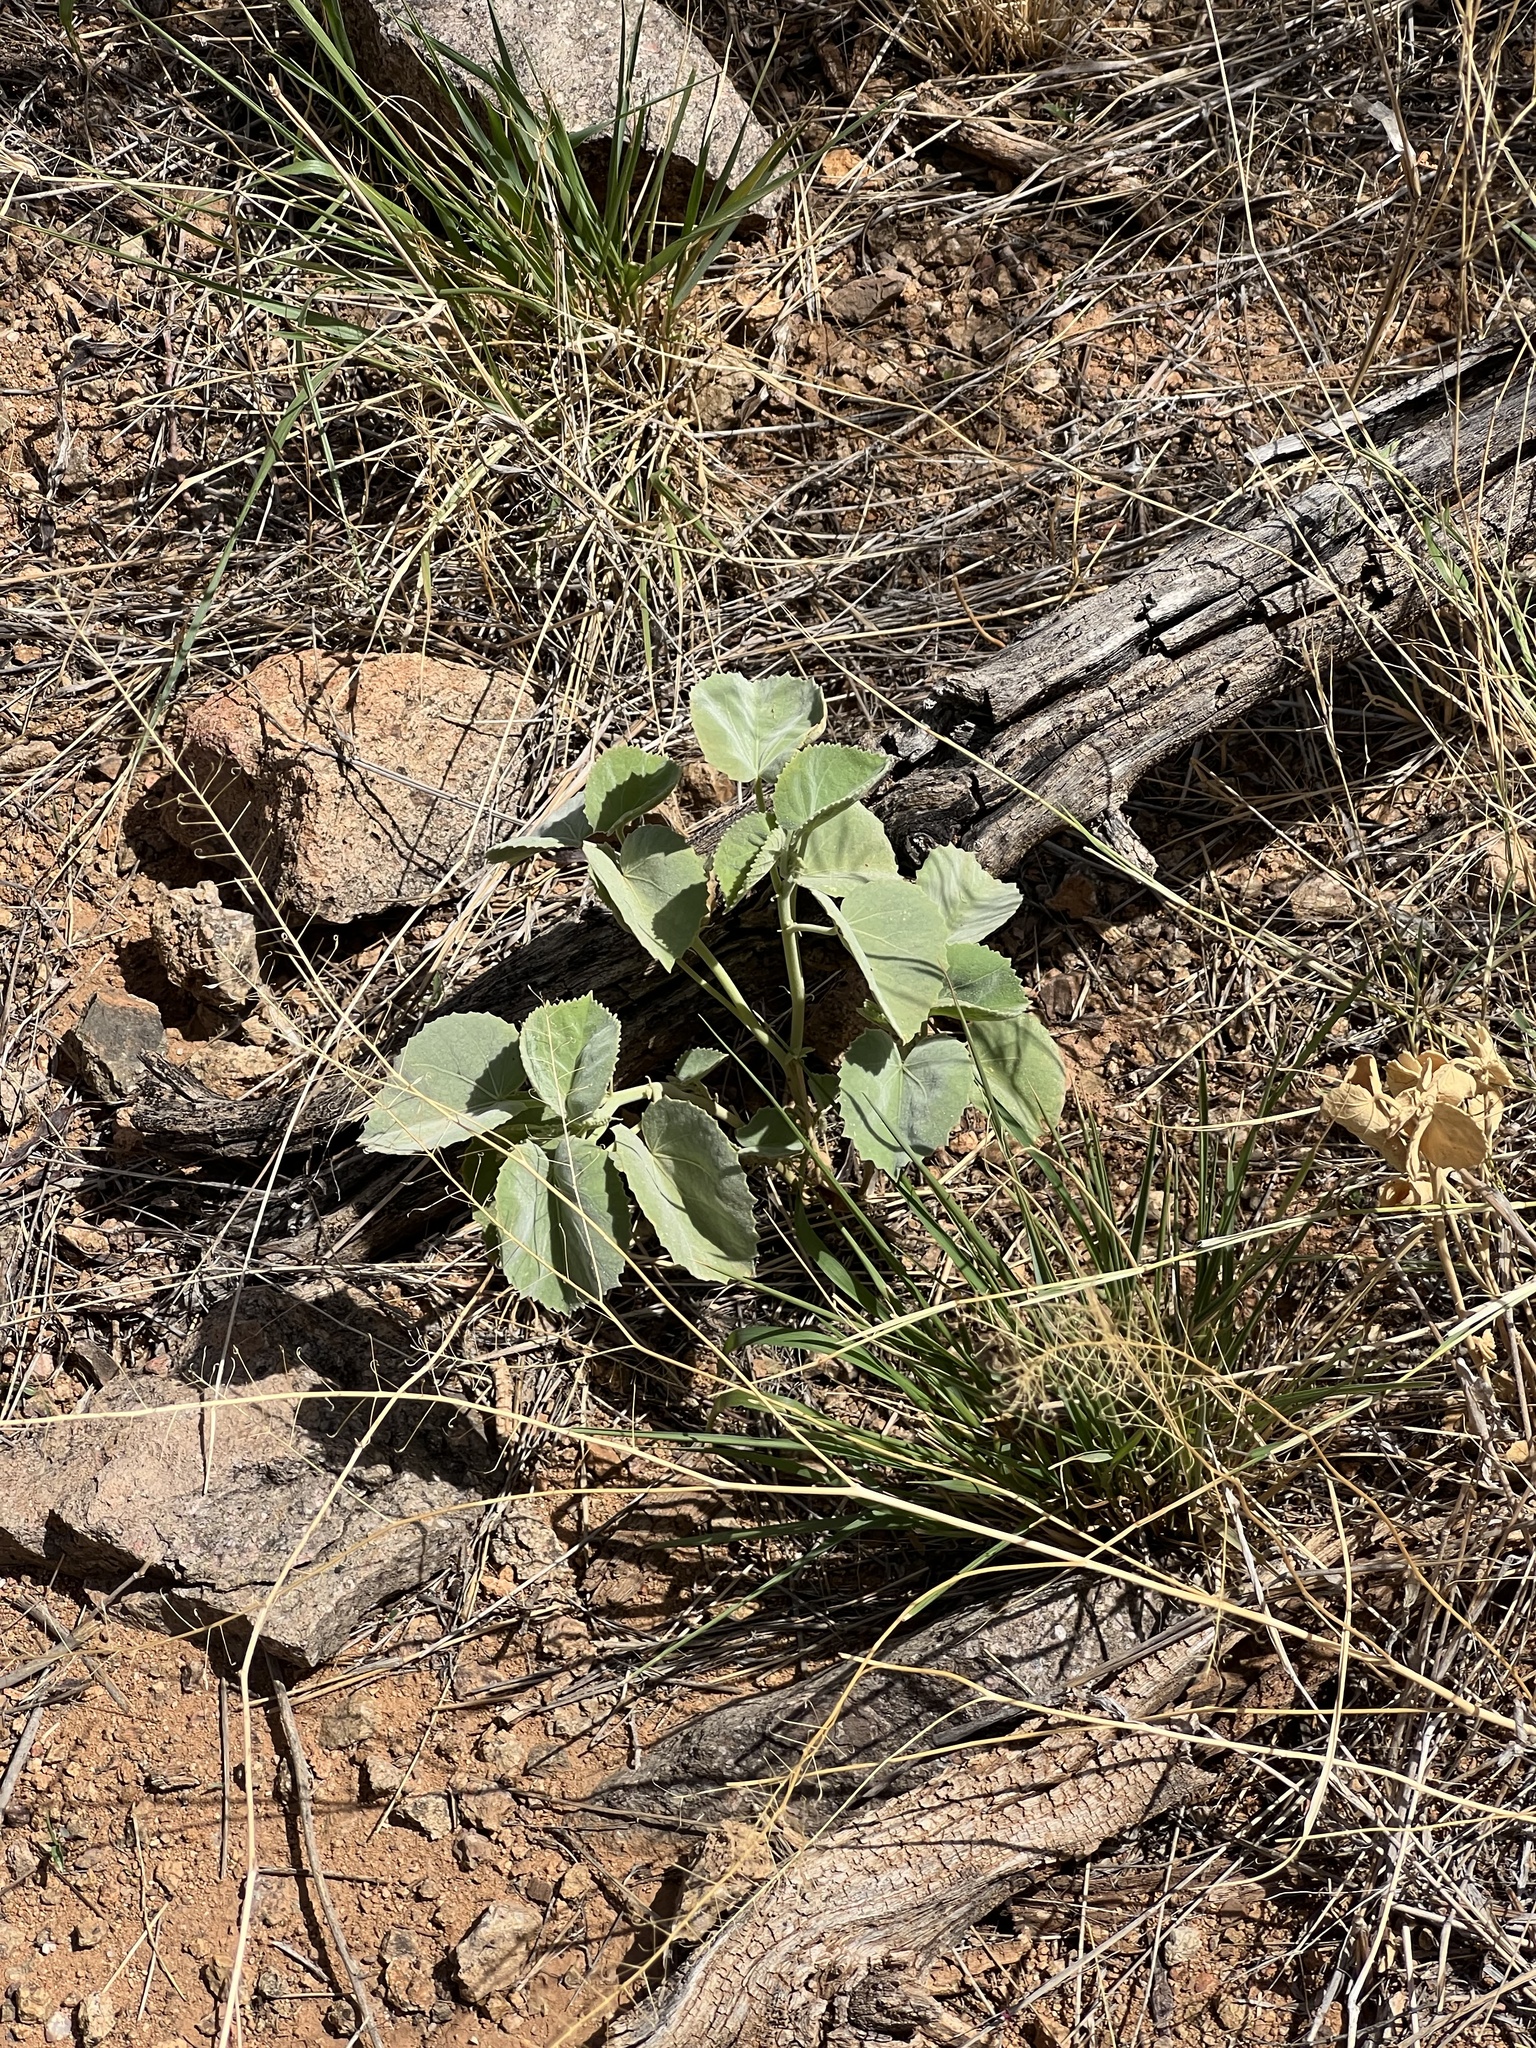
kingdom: Plantae
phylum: Tracheophyta
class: Magnoliopsida
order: Malvales
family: Malvaceae
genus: Abutilon
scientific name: Abutilon malacum
